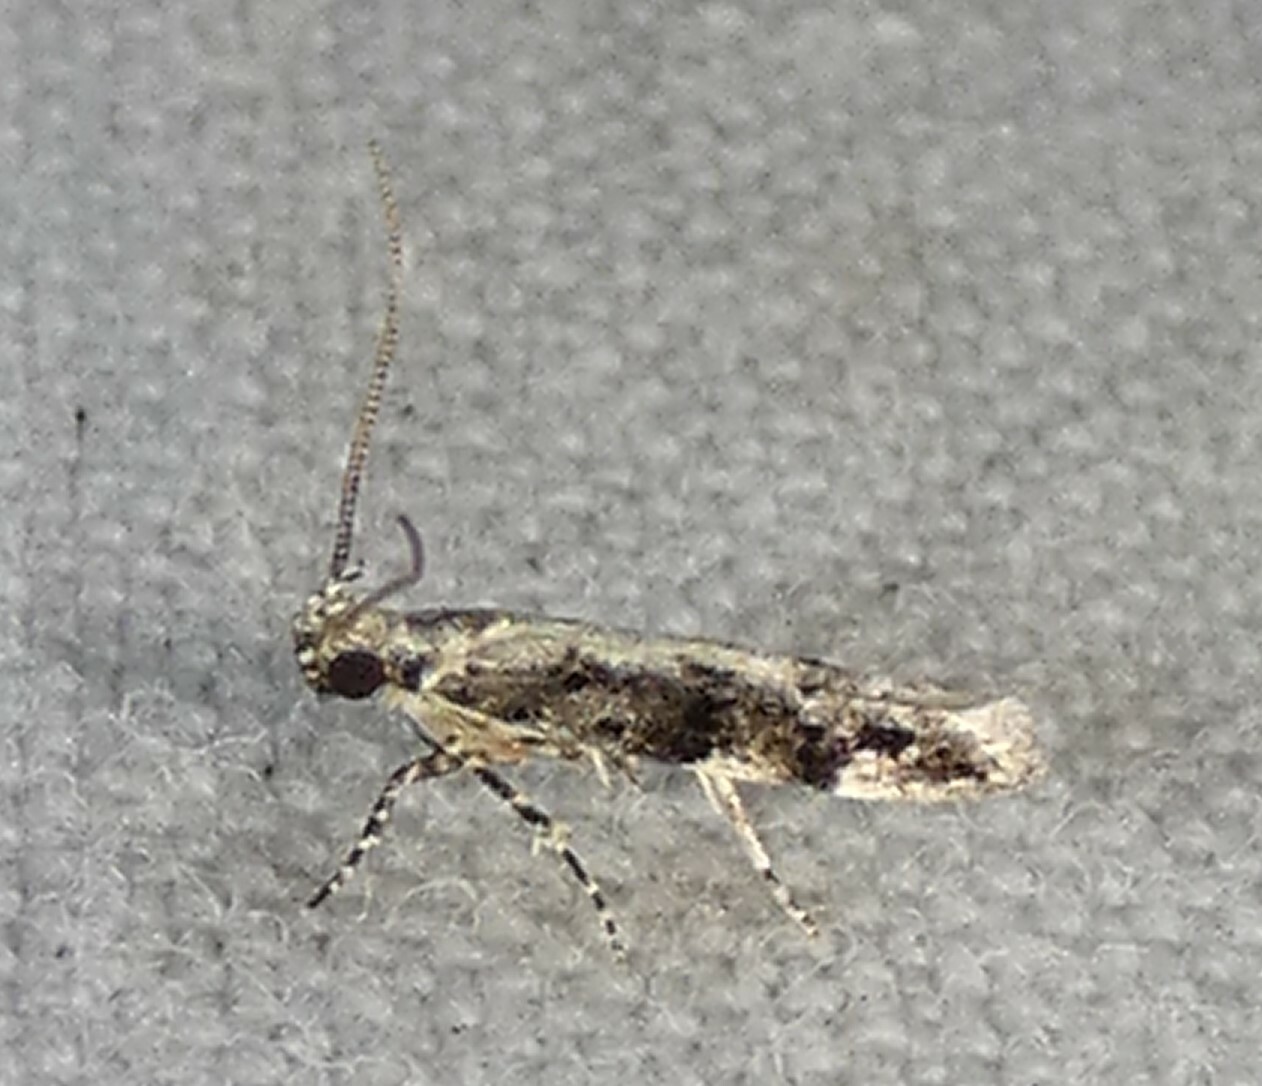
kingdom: Animalia
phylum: Arthropoda
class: Insecta
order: Lepidoptera
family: Gelechiidae
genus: Coleotechnites
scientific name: Coleotechnites florae
